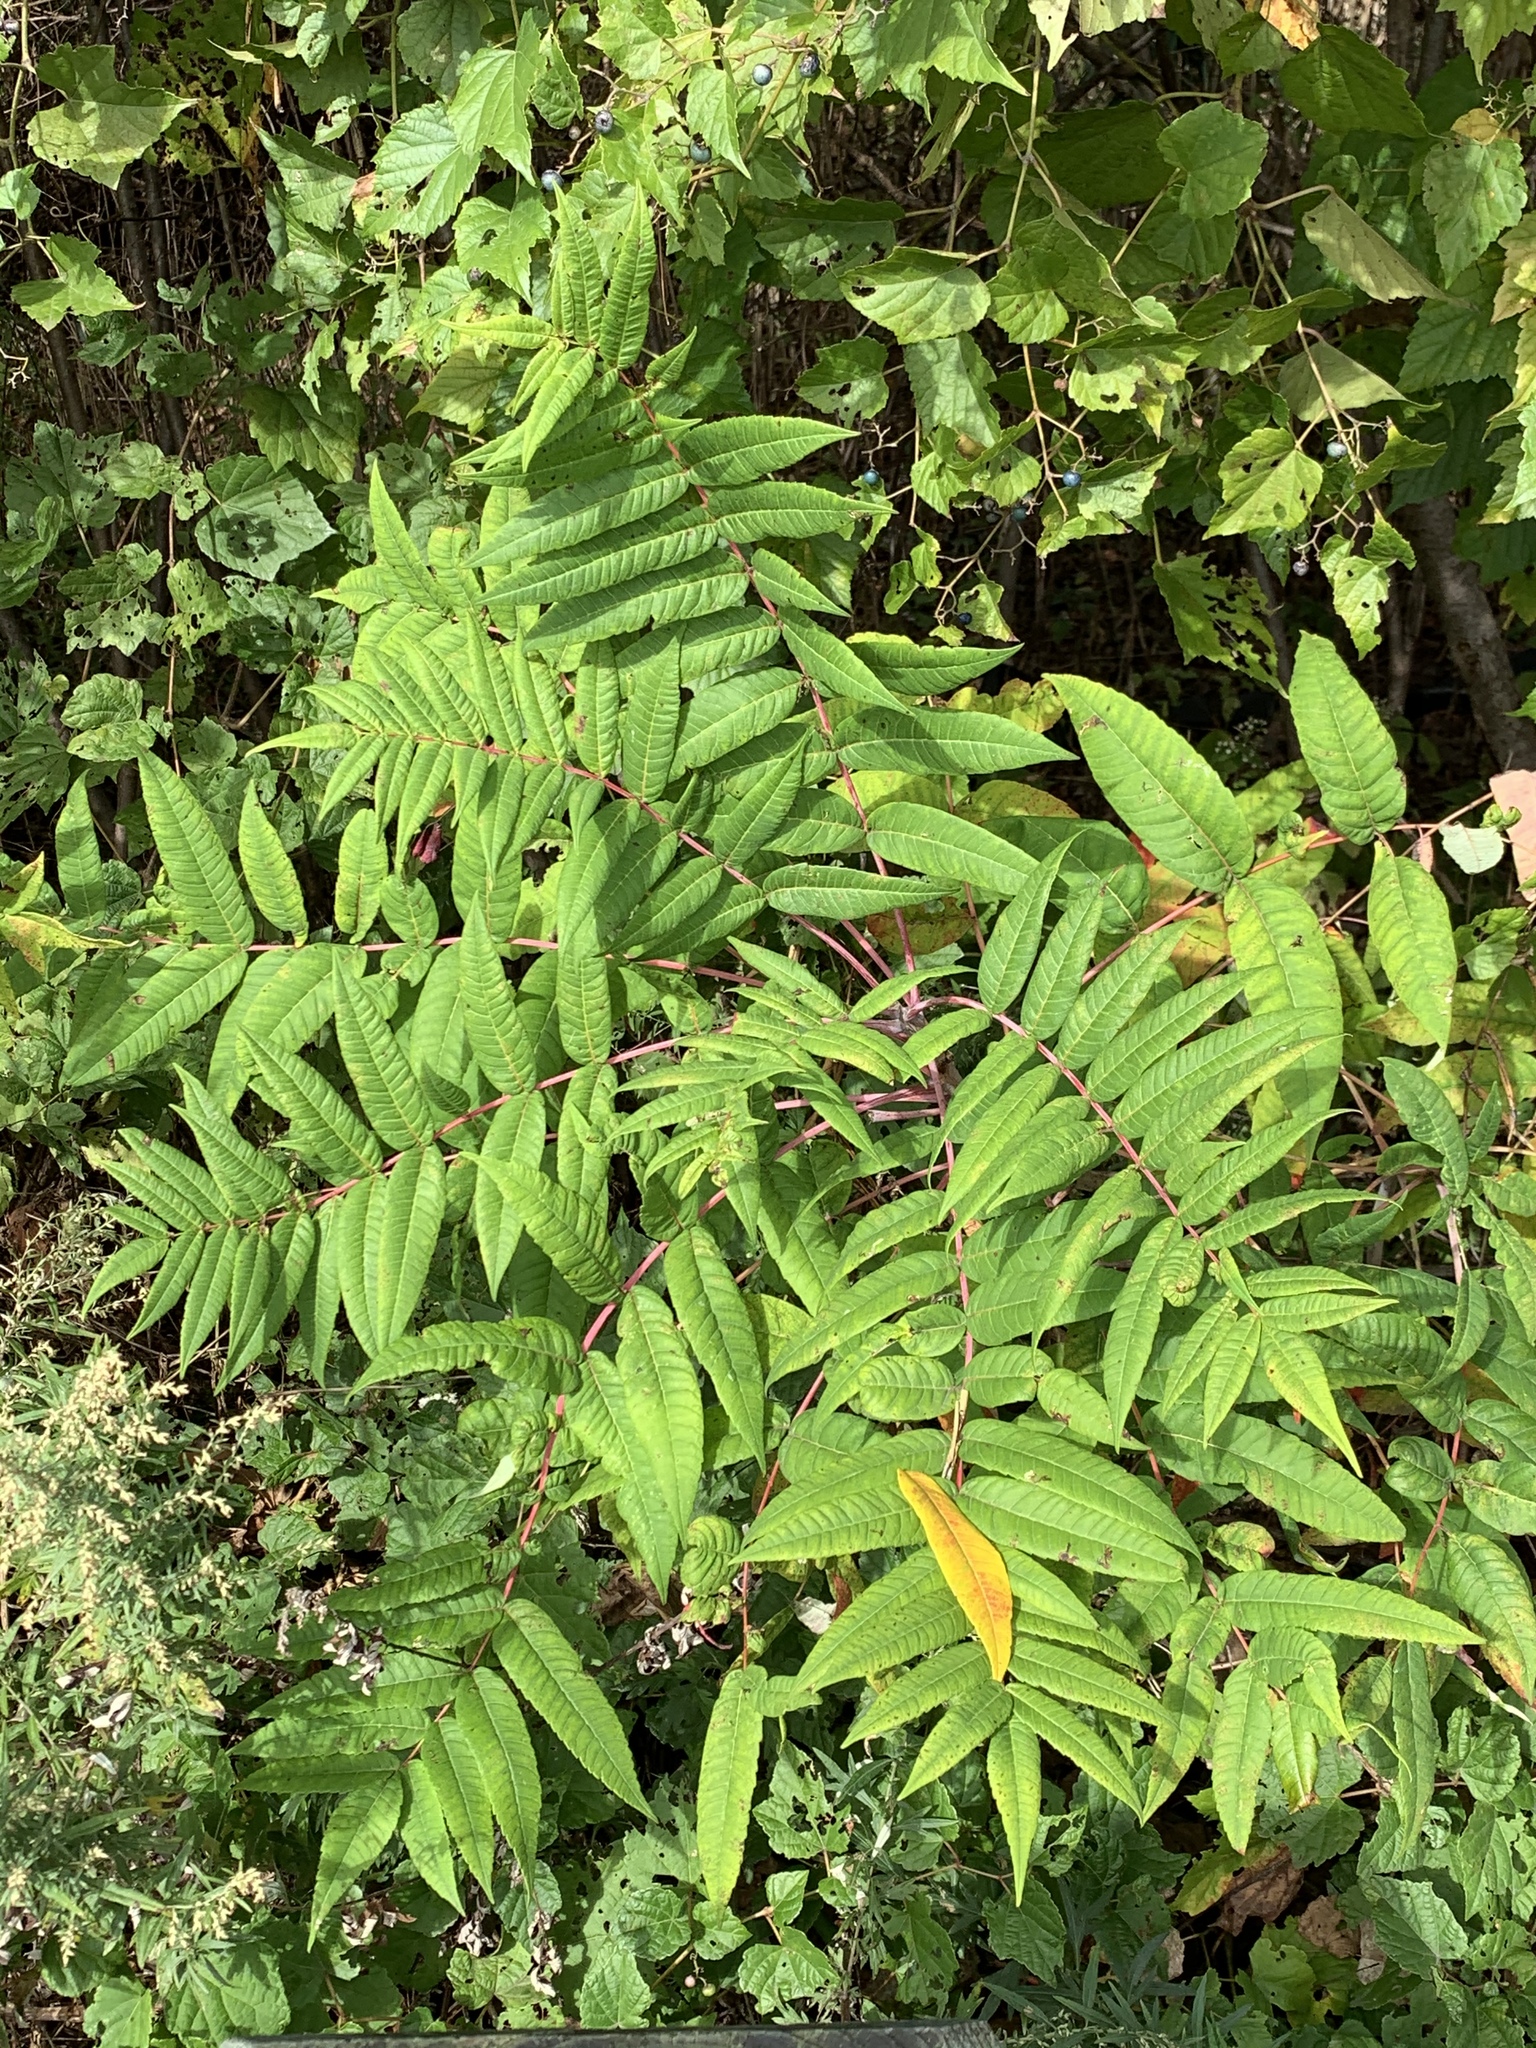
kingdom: Plantae
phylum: Tracheophyta
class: Magnoliopsida
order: Sapindales
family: Anacardiaceae
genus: Rhus
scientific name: Rhus glabra
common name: Scarlet sumac
